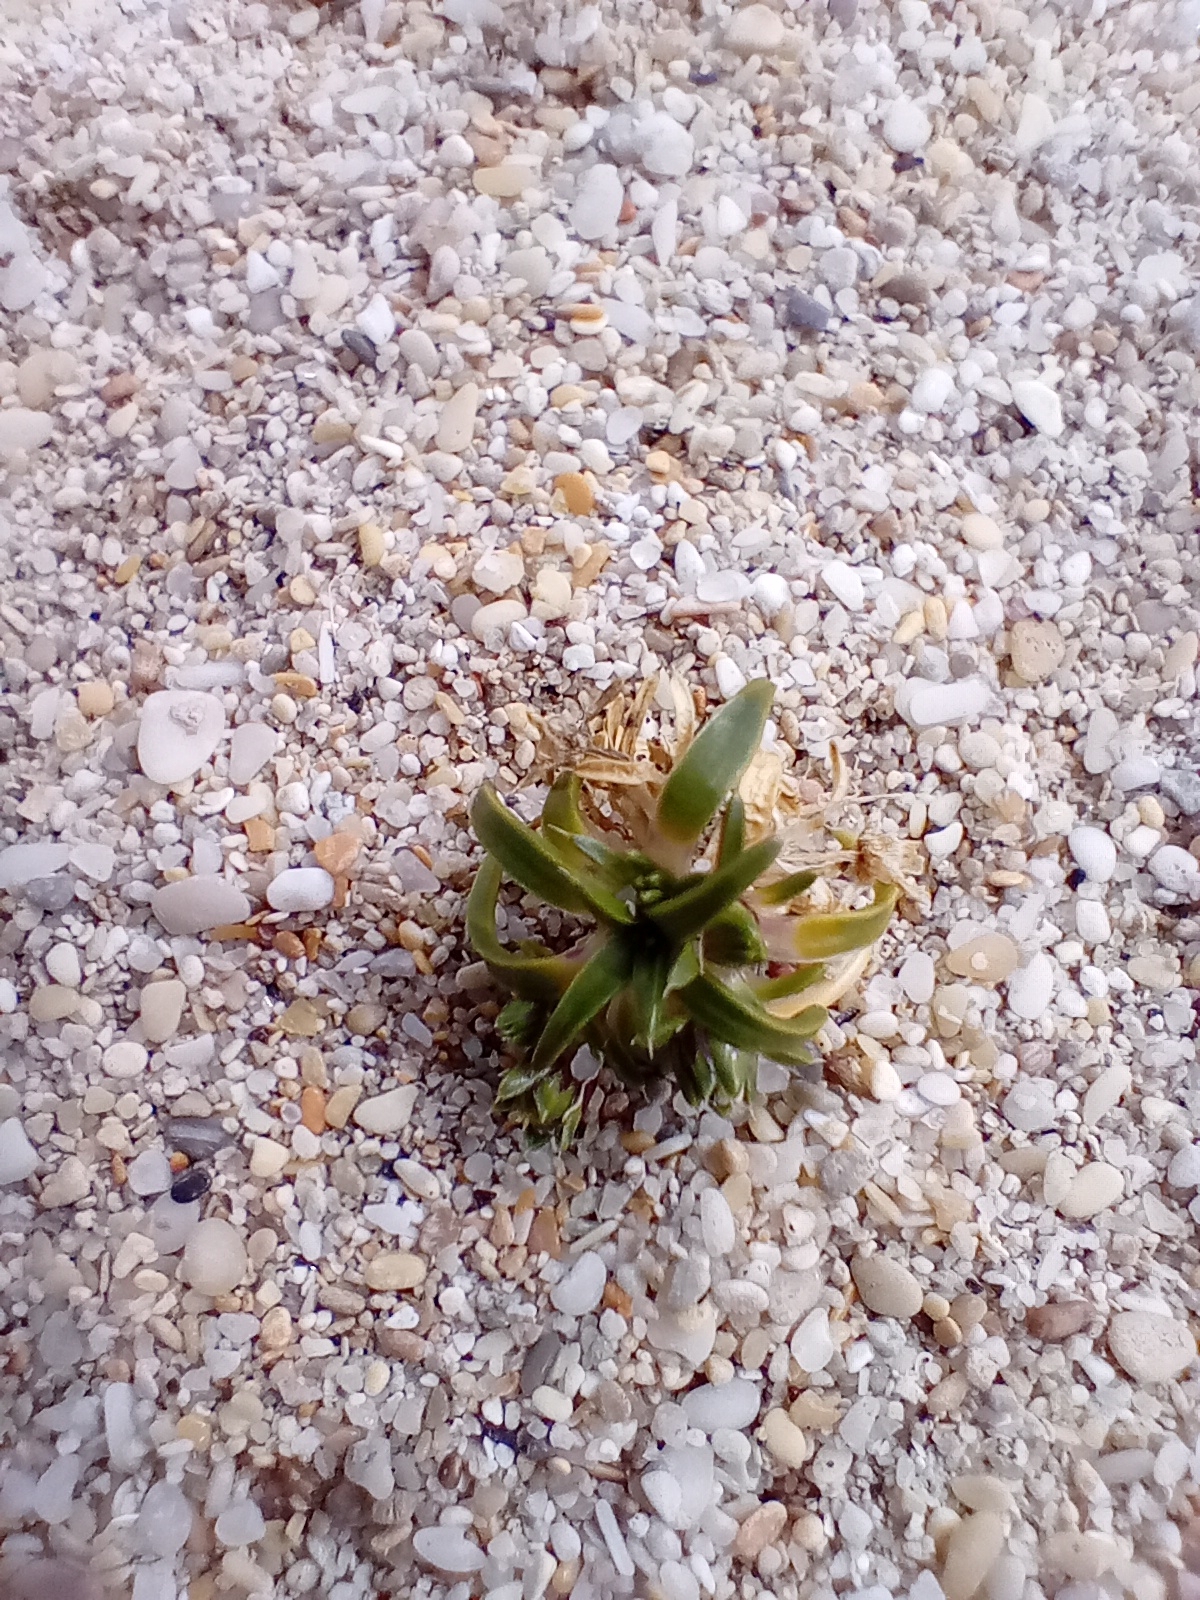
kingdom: Plantae
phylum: Tracheophyta
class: Magnoliopsida
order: Caryophyllales
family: Caryophyllaceae
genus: Colobanthus
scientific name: Colobanthus muelleri
